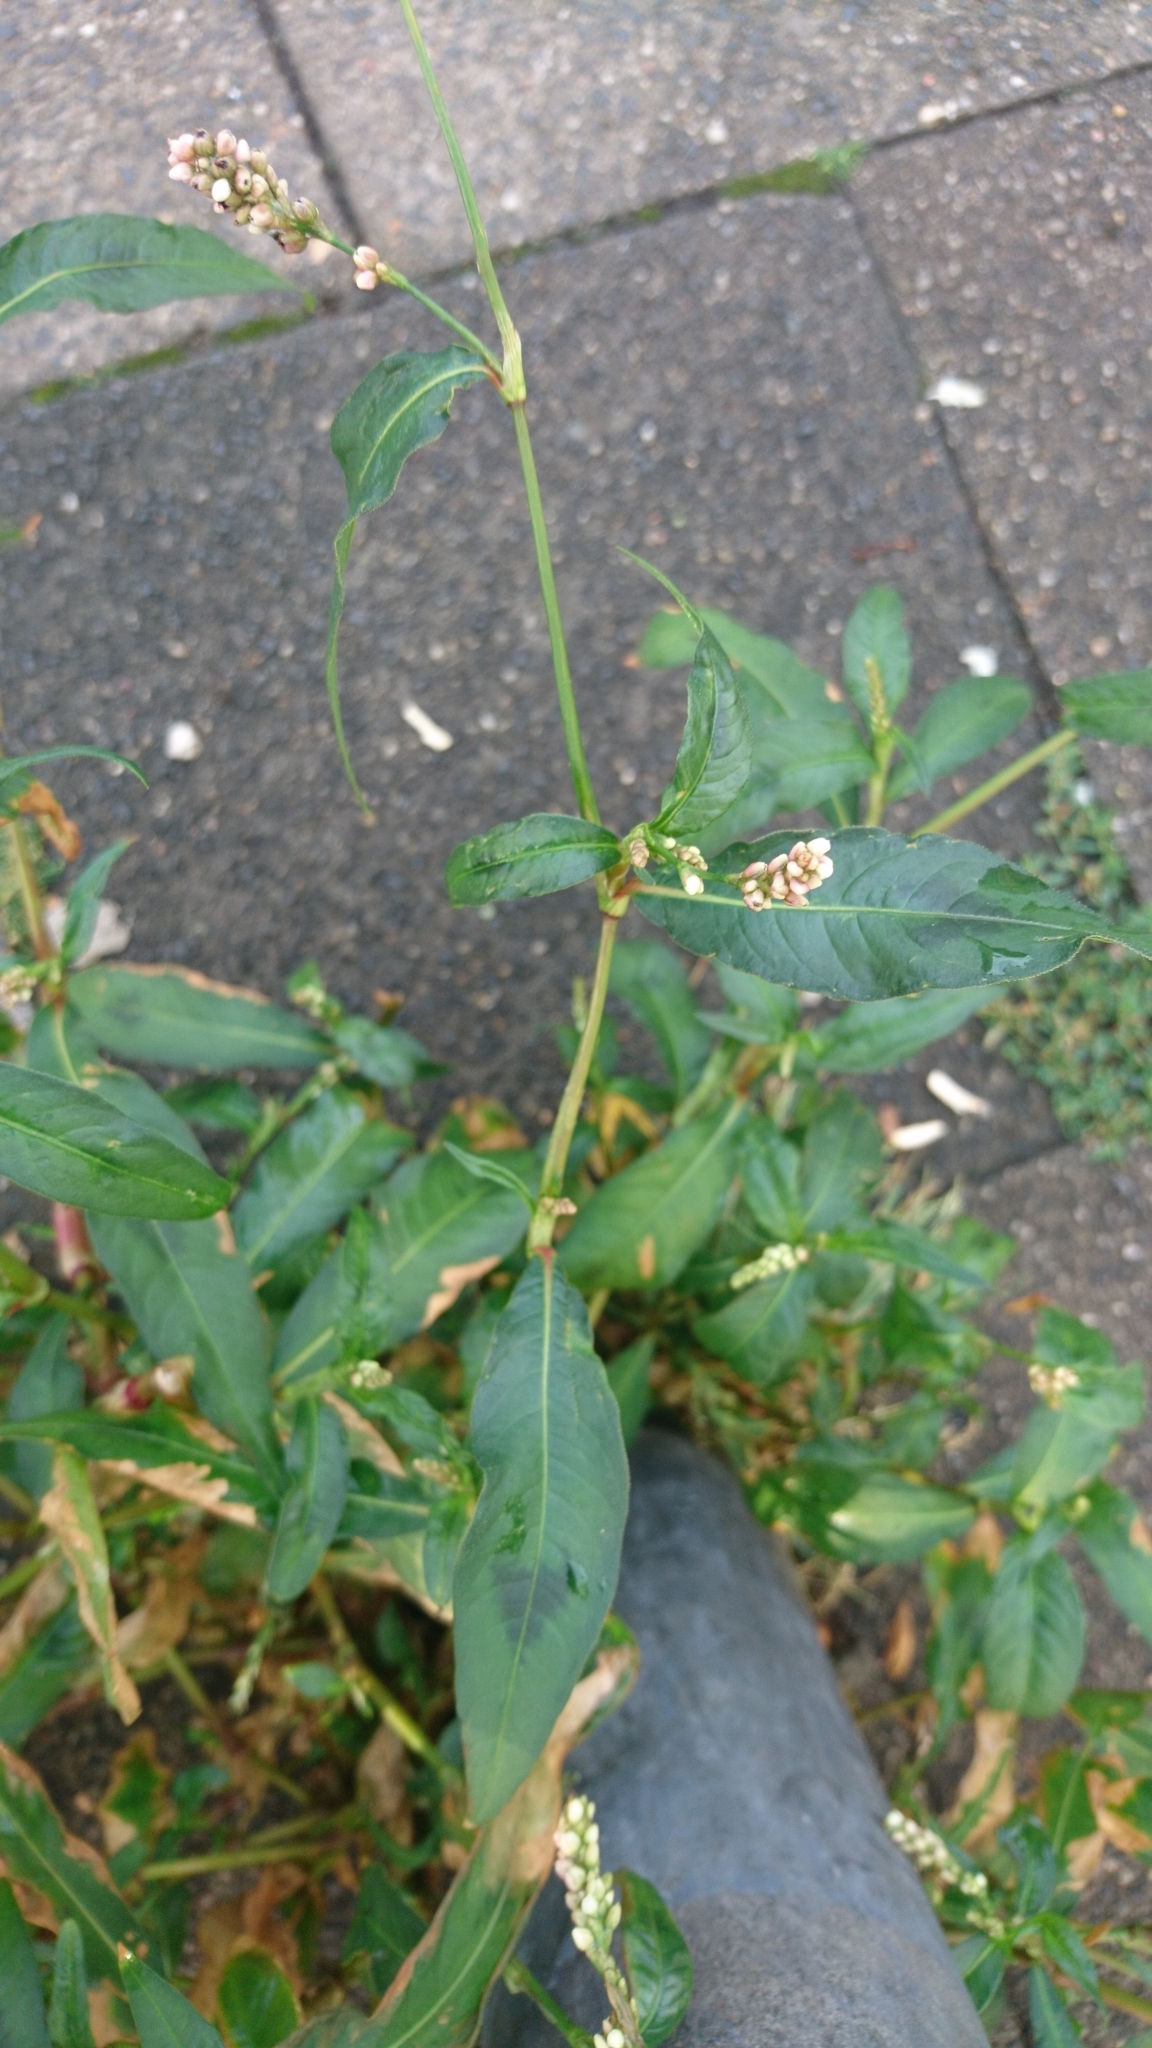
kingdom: Plantae
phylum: Tracheophyta
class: Magnoliopsida
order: Caryophyllales
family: Polygonaceae
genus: Persicaria
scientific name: Persicaria maculosa
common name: Redshank
